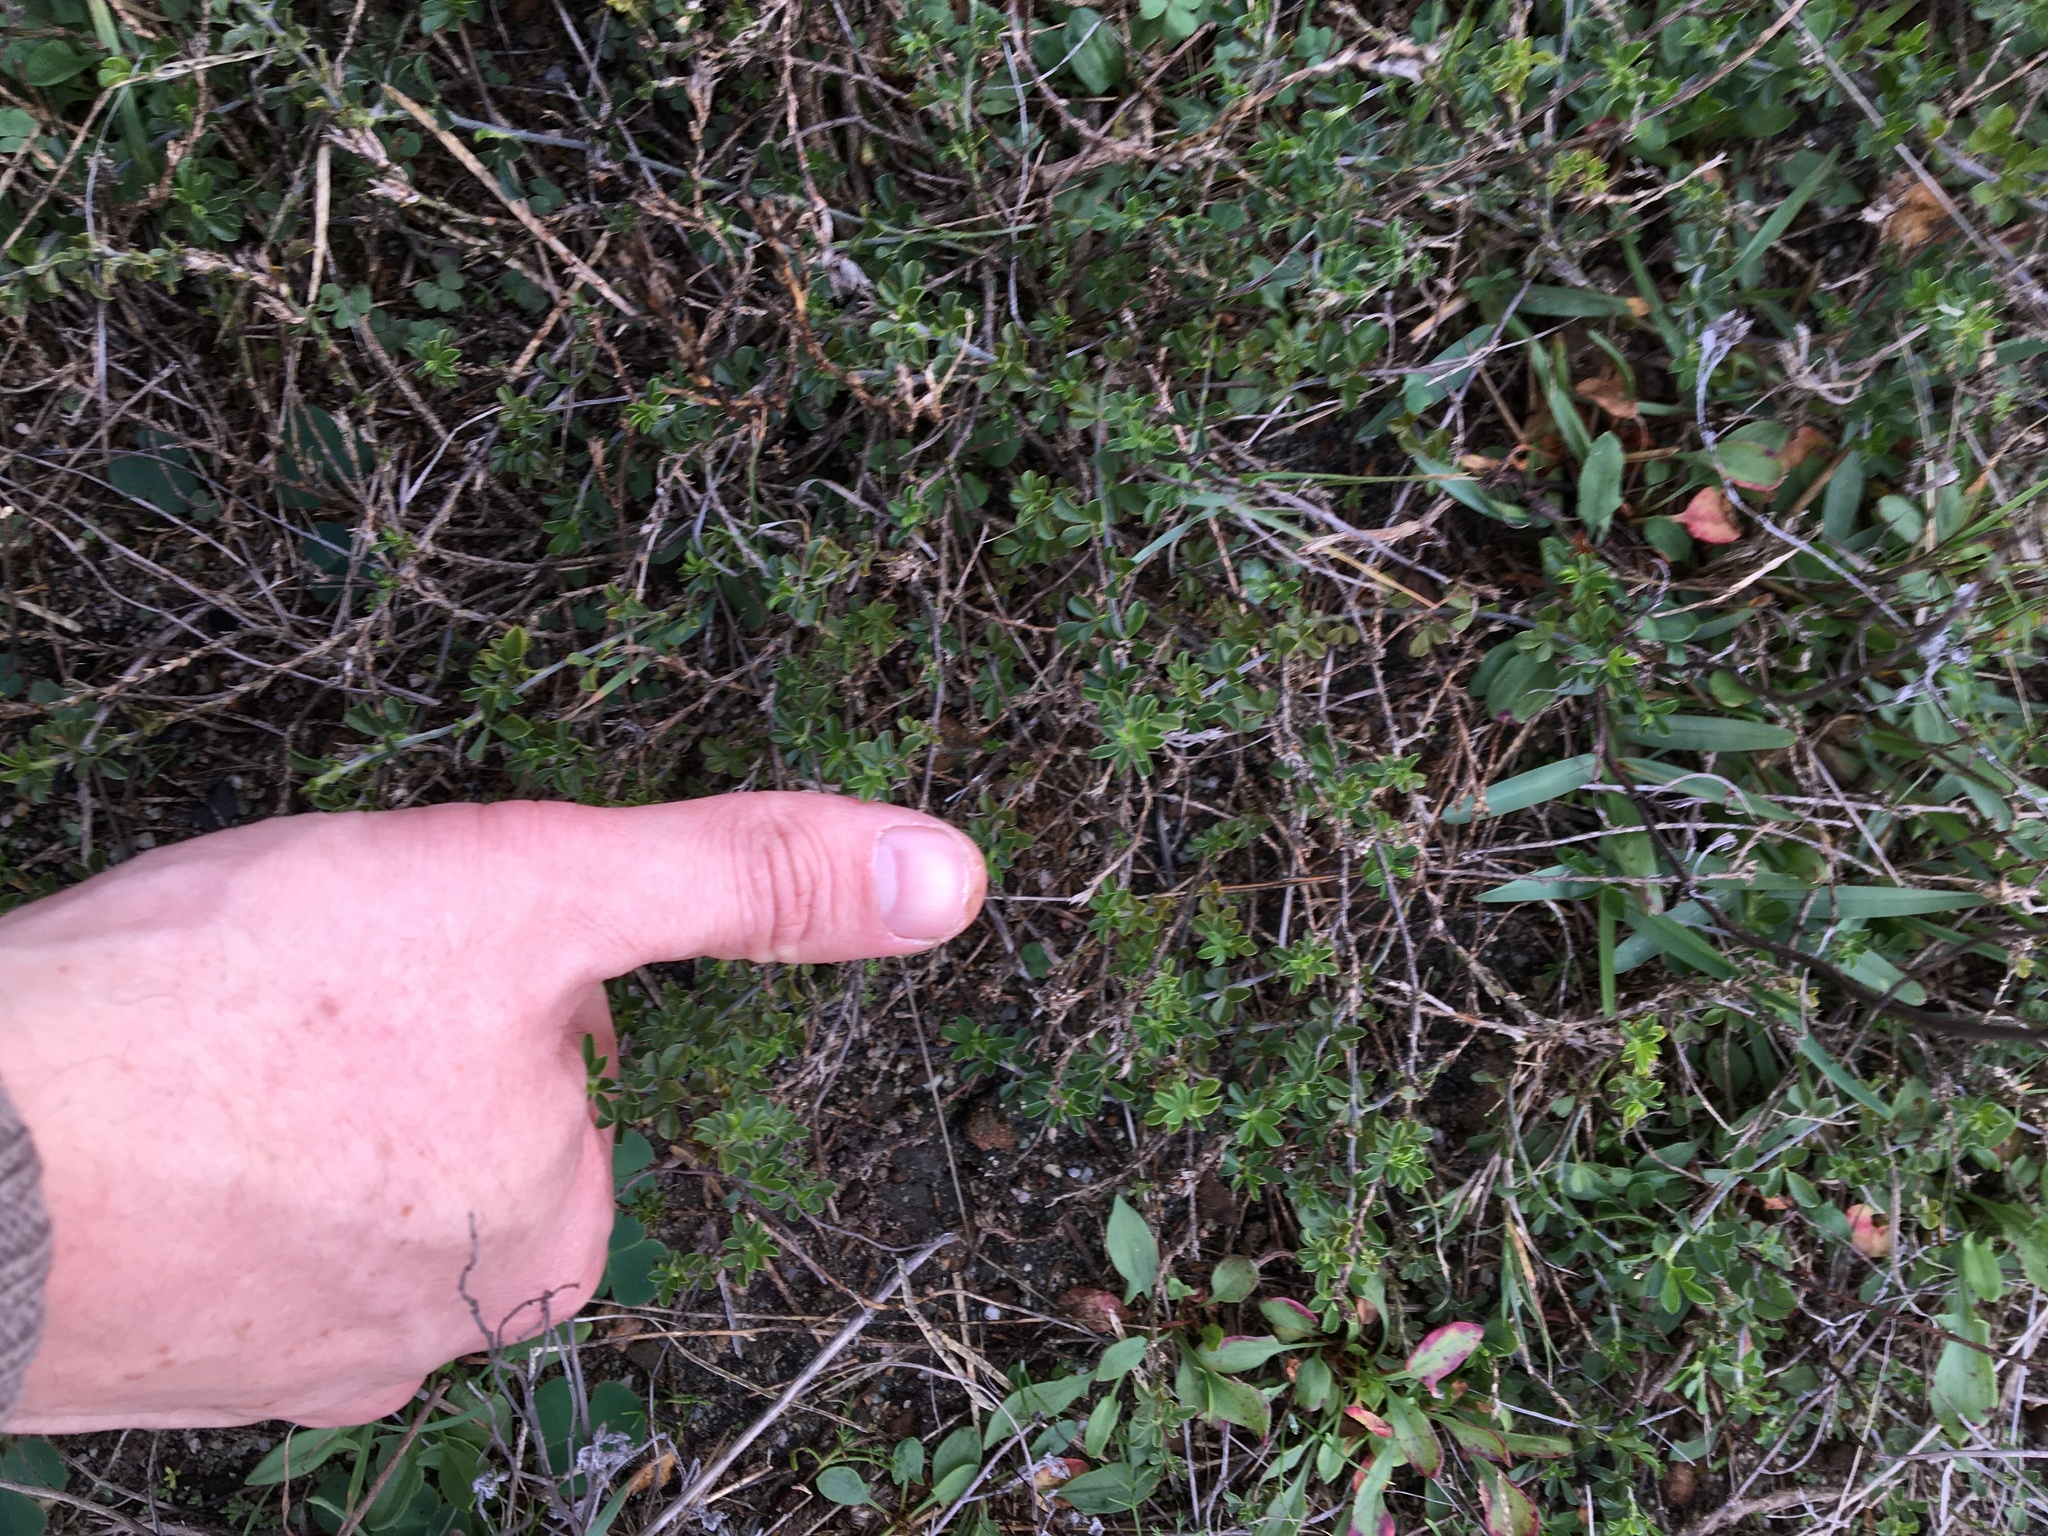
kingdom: Plantae
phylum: Tracheophyta
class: Magnoliopsida
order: Fabales
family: Fabaceae
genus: Otholobium
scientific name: Otholobium
